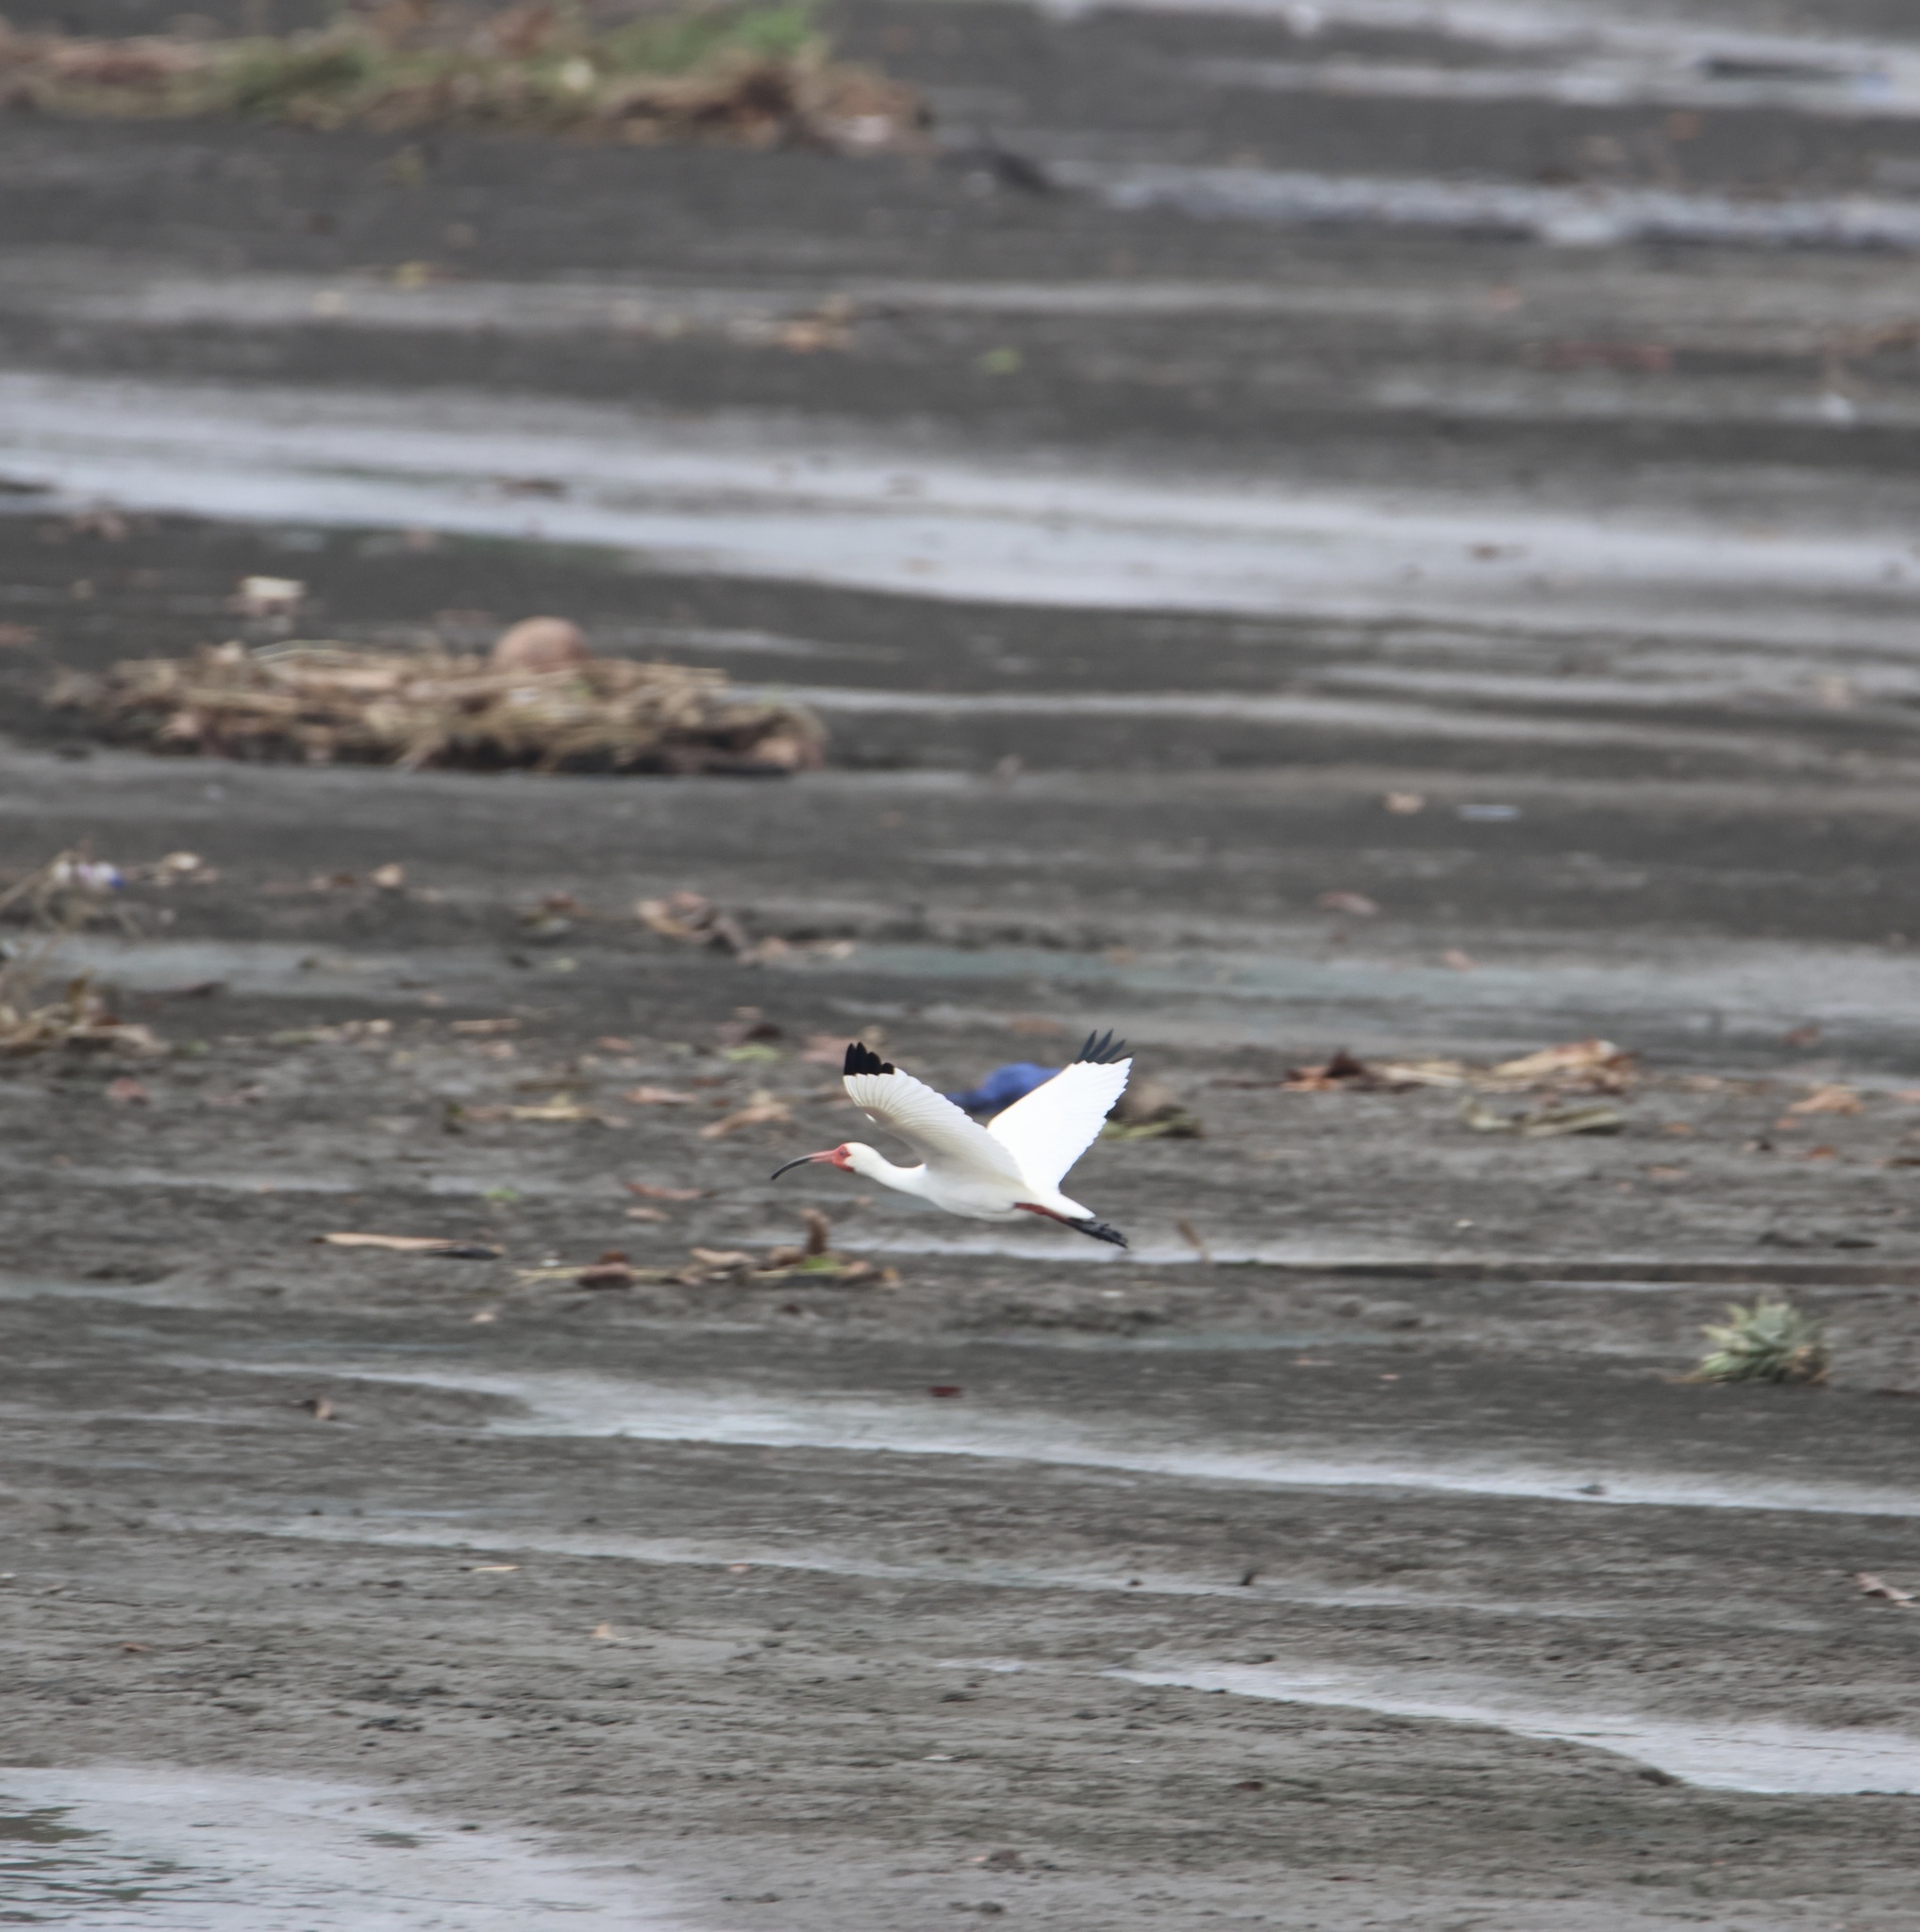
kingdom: Animalia
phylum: Chordata
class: Aves
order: Pelecaniformes
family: Threskiornithidae
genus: Eudocimus
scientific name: Eudocimus albus
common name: White ibis
